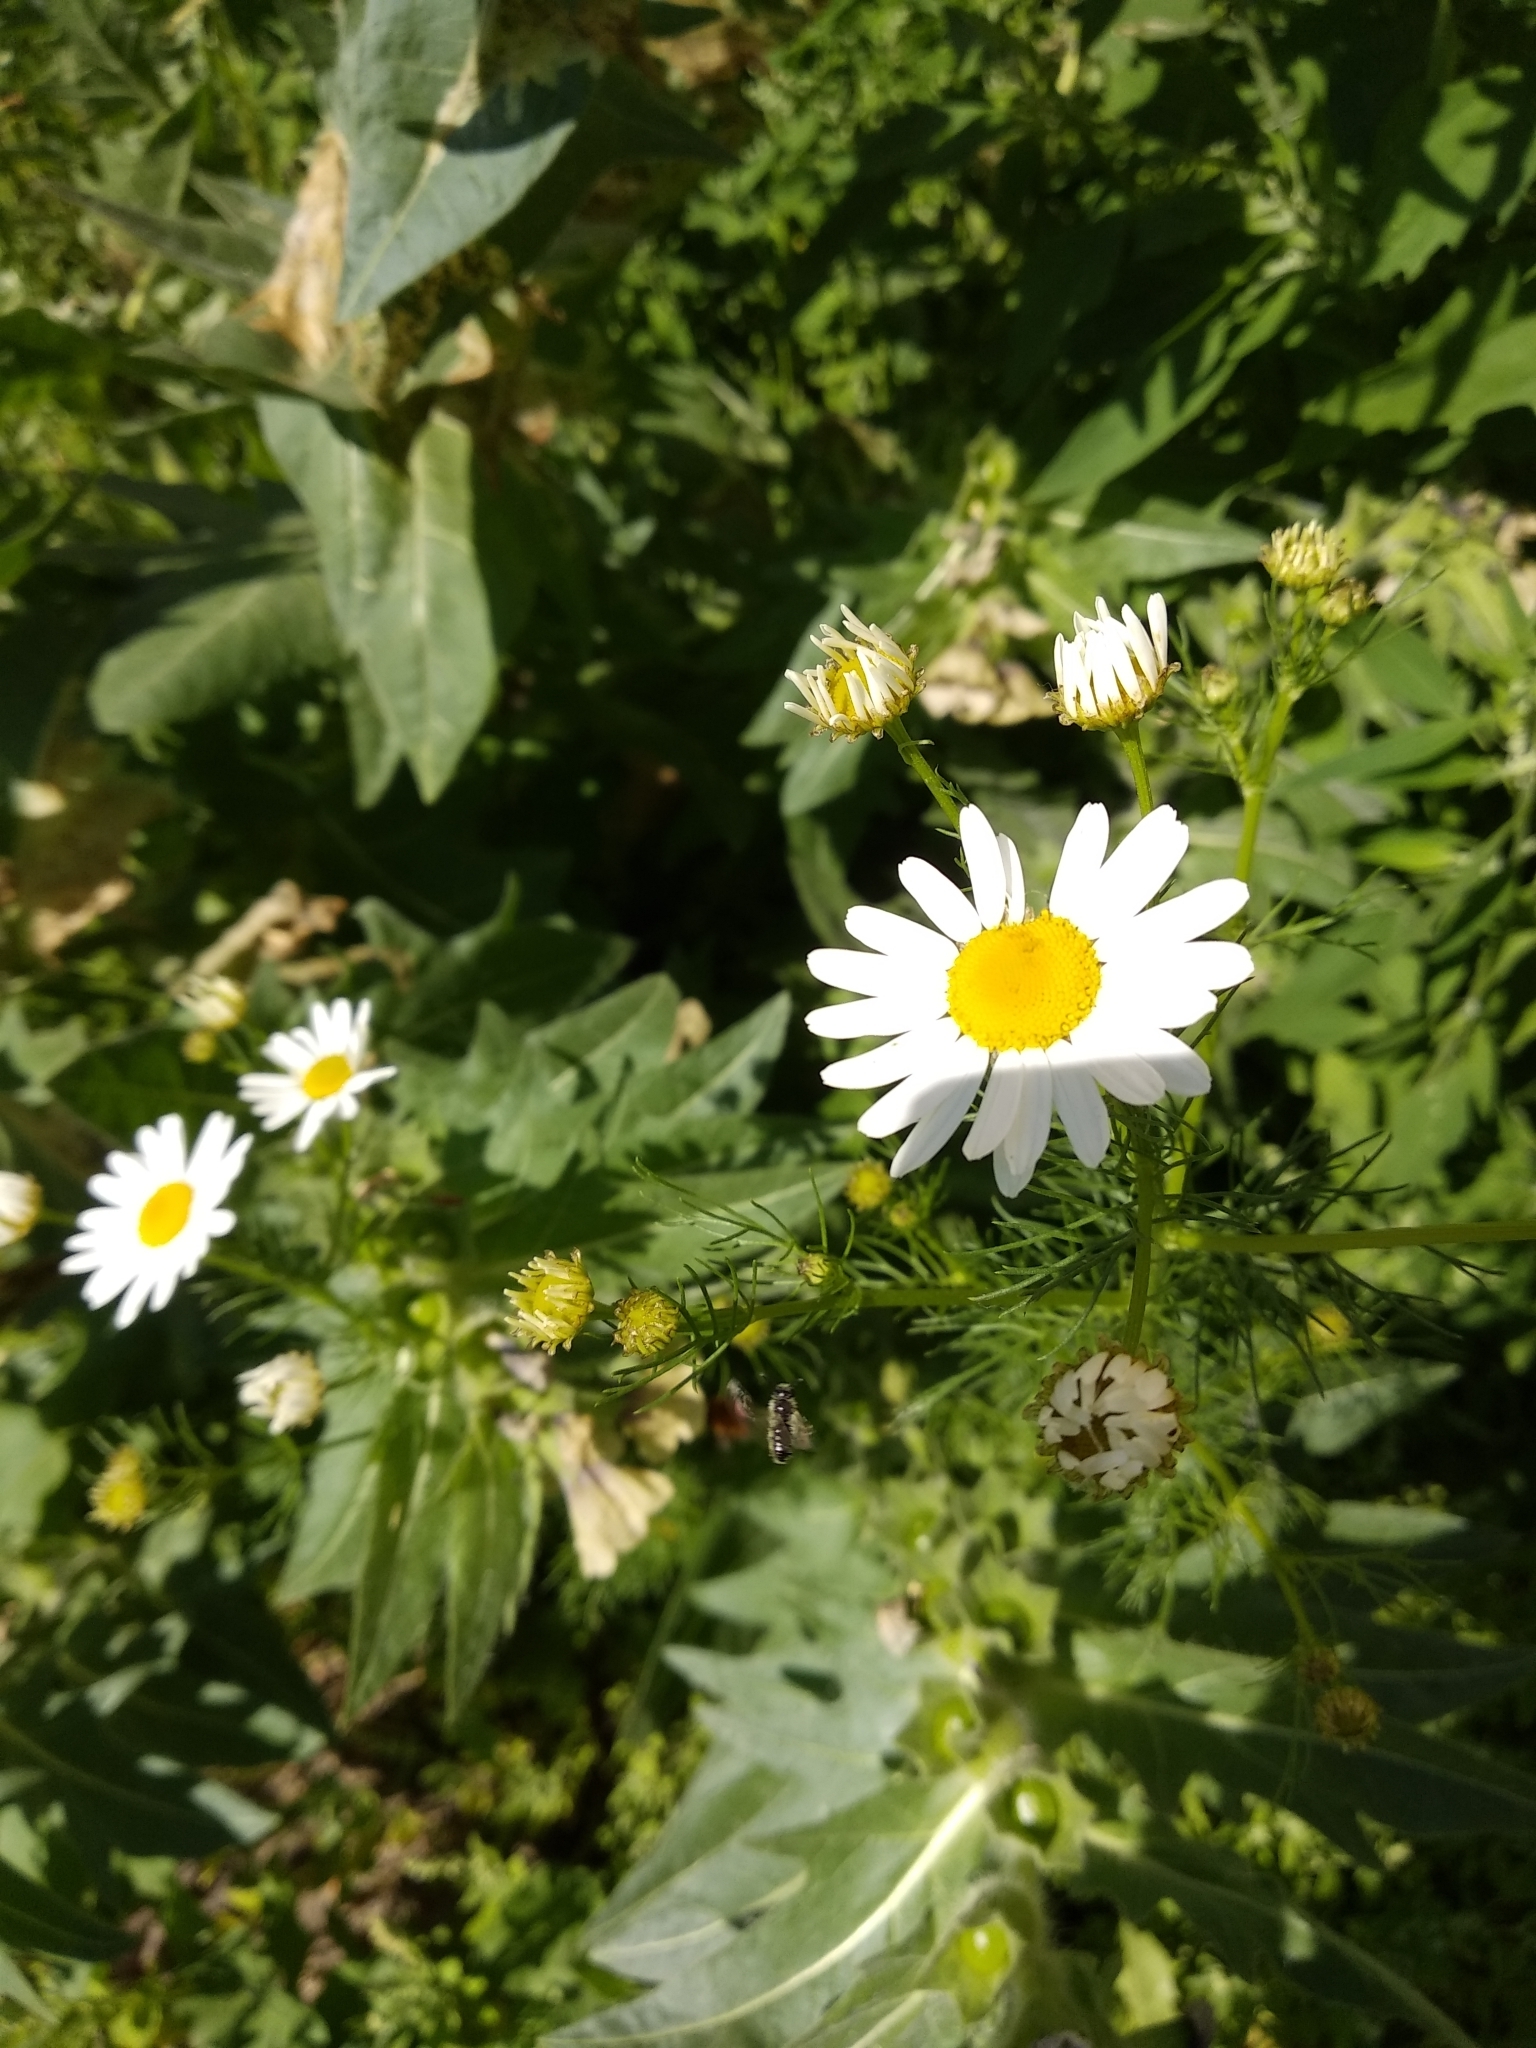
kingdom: Plantae
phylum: Tracheophyta
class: Magnoliopsida
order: Asterales
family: Asteraceae
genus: Tripleurospermum
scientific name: Tripleurospermum inodorum
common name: Scentless mayweed
